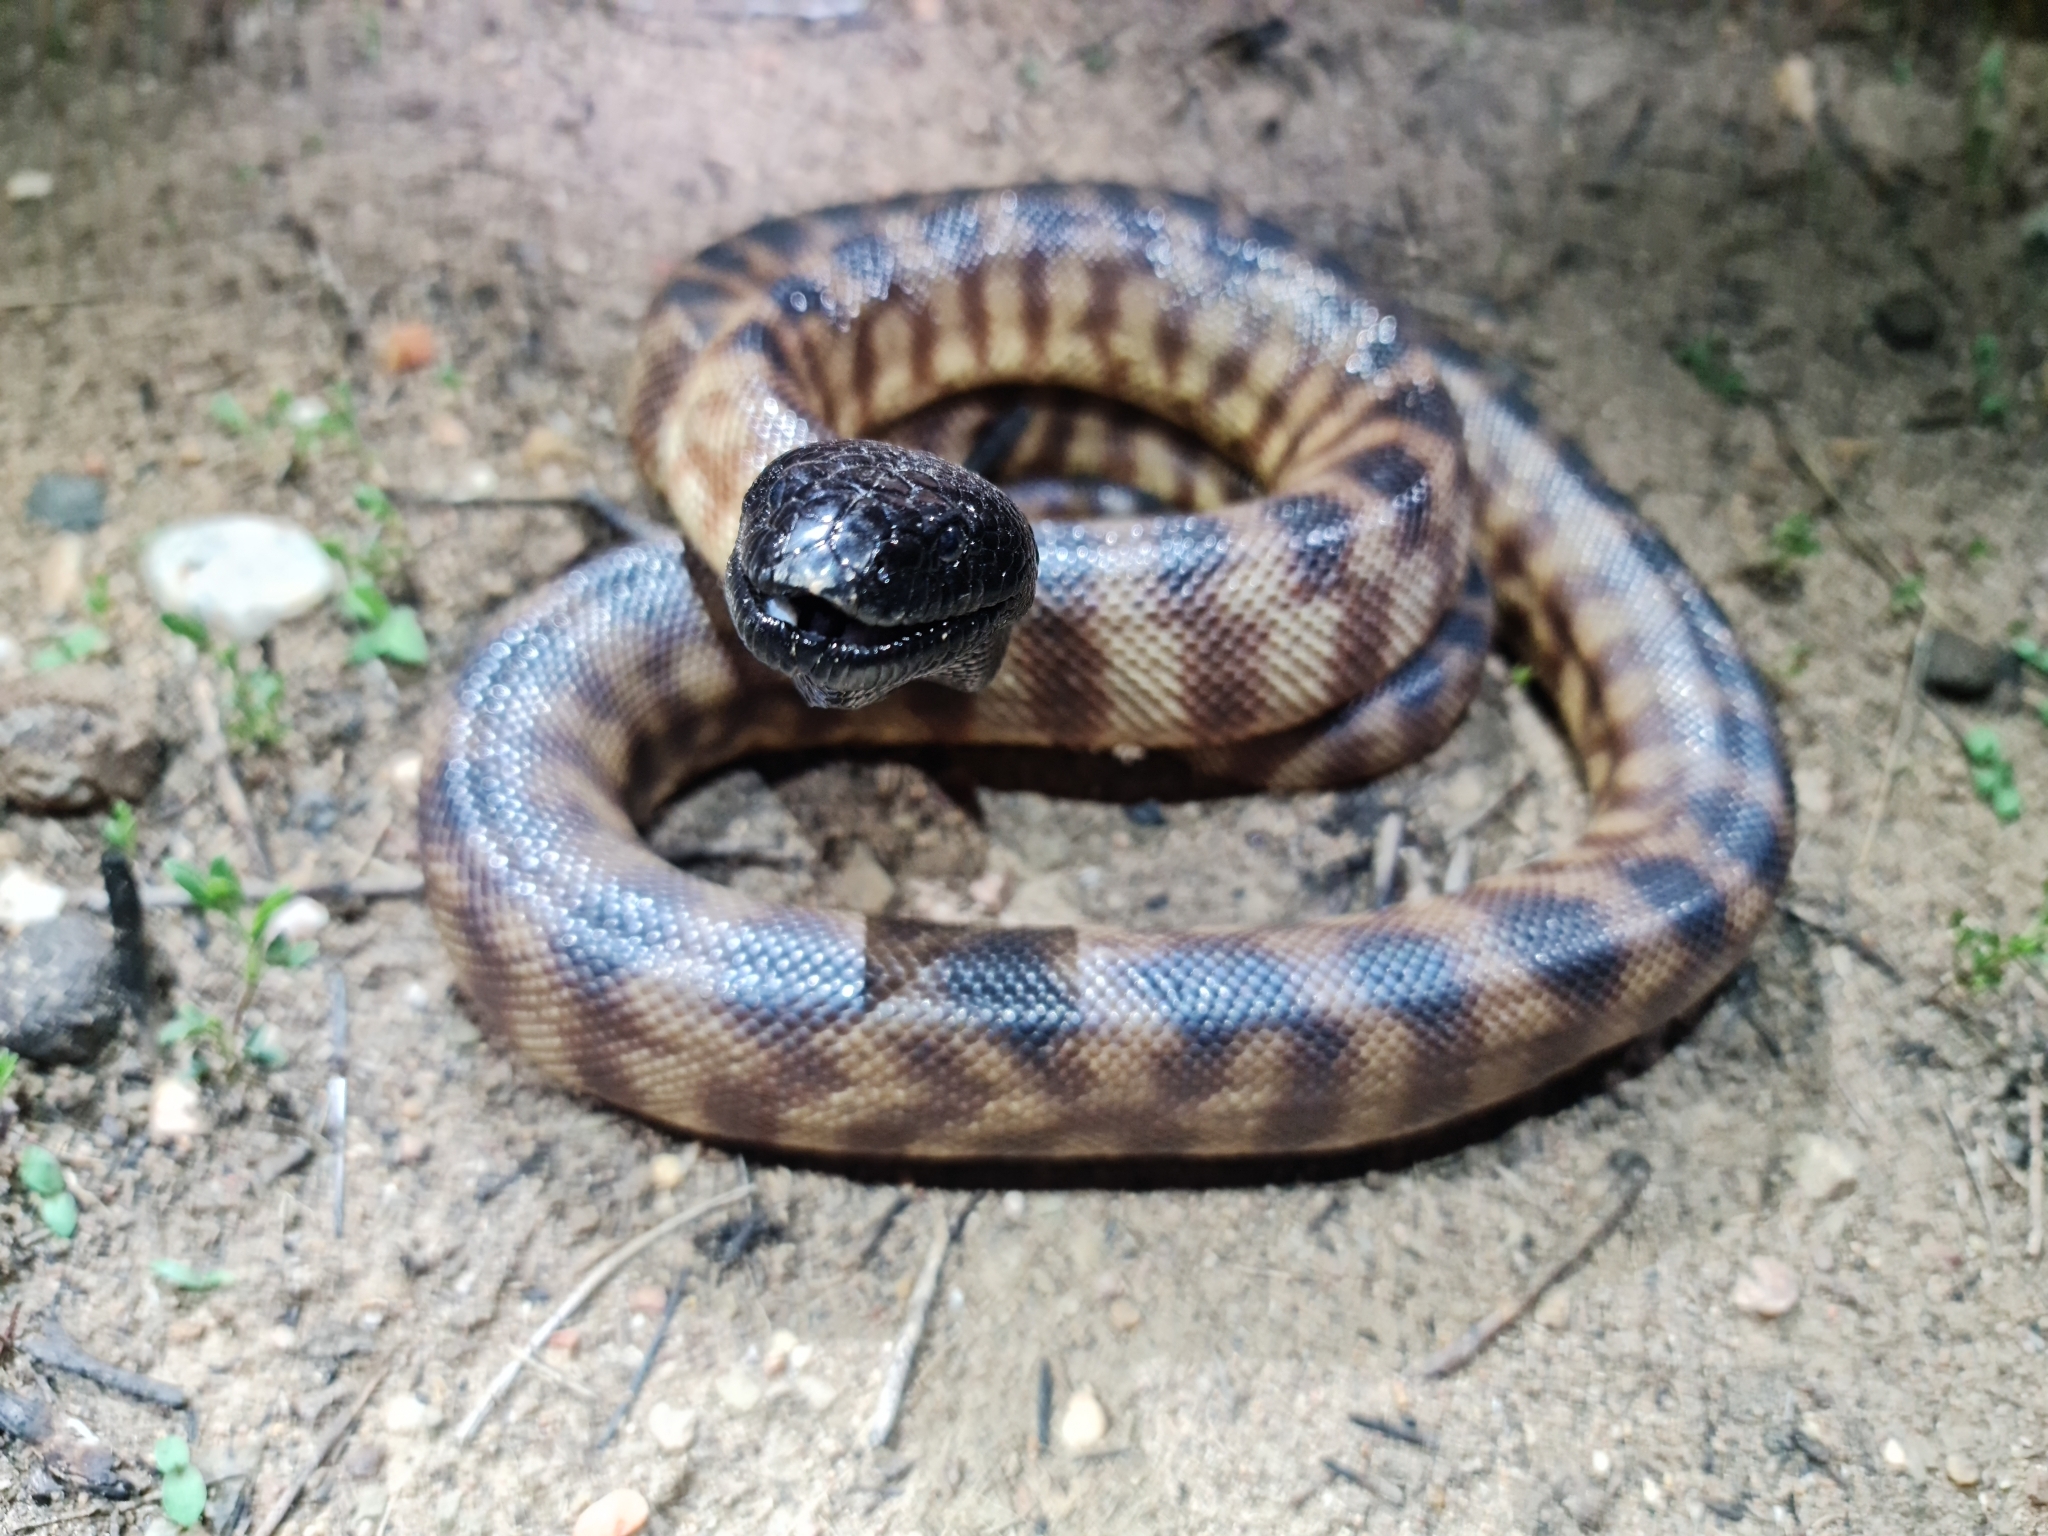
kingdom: Animalia
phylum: Chordata
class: Squamata
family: Pythonidae
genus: Aspidites
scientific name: Aspidites melanocephalus
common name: Black-headed python
